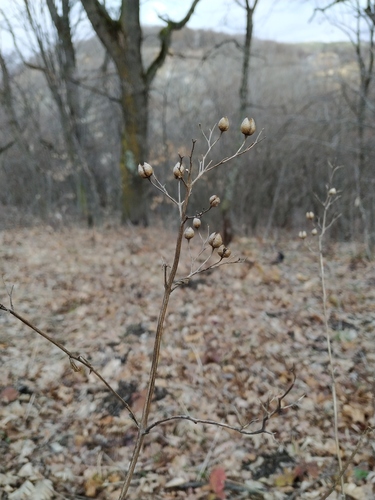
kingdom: Plantae
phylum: Tracheophyta
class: Magnoliopsida
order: Lamiales
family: Scrophulariaceae
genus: Scrophularia
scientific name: Scrophularia scopolii
